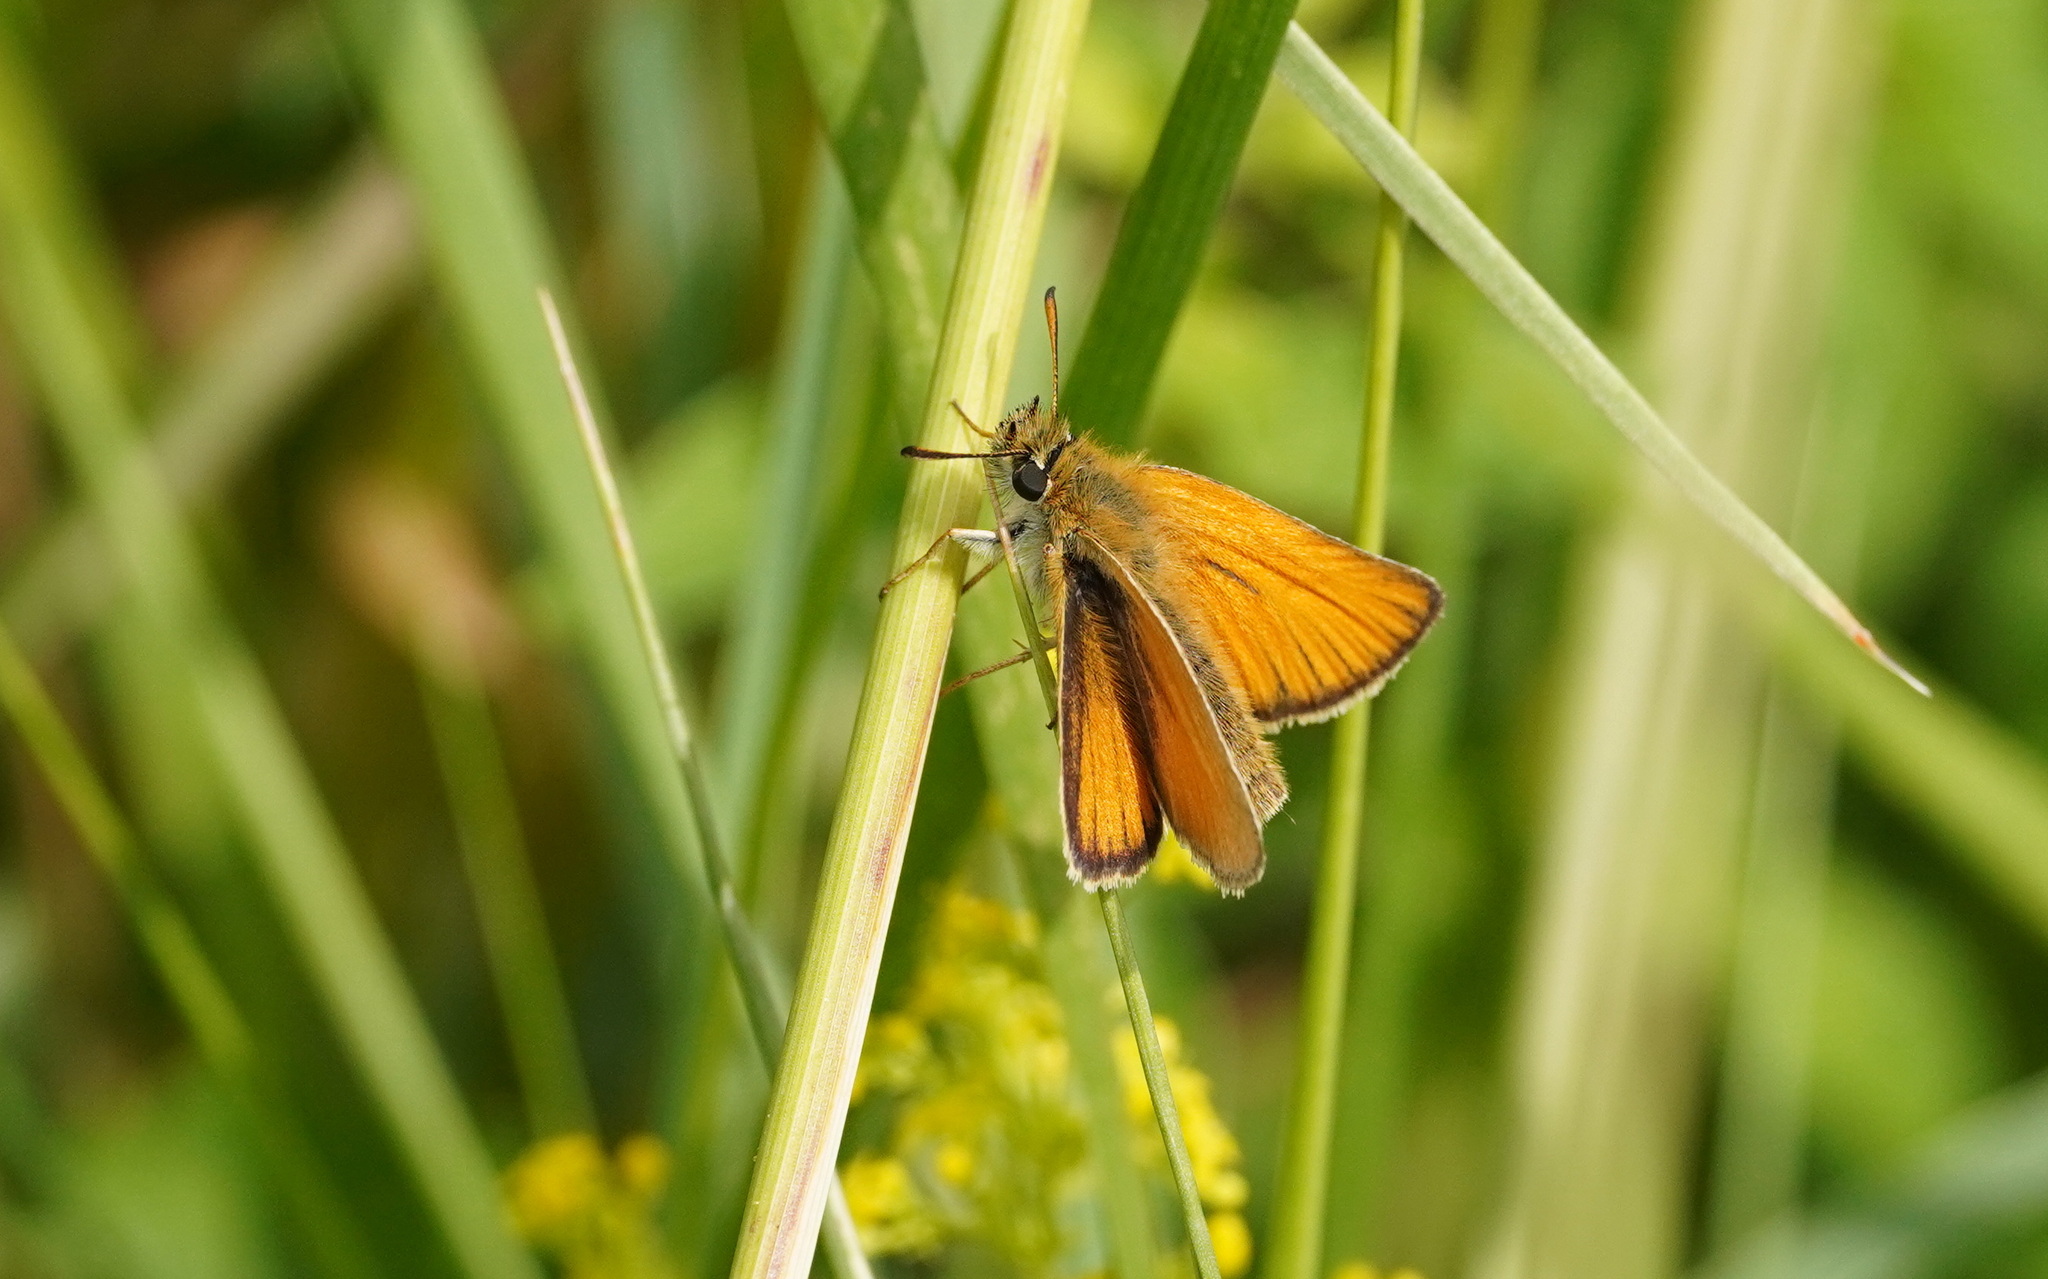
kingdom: Animalia
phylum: Arthropoda
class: Insecta
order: Lepidoptera
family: Hesperiidae
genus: Thymelicus
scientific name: Thymelicus lineola
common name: Essex skipper
